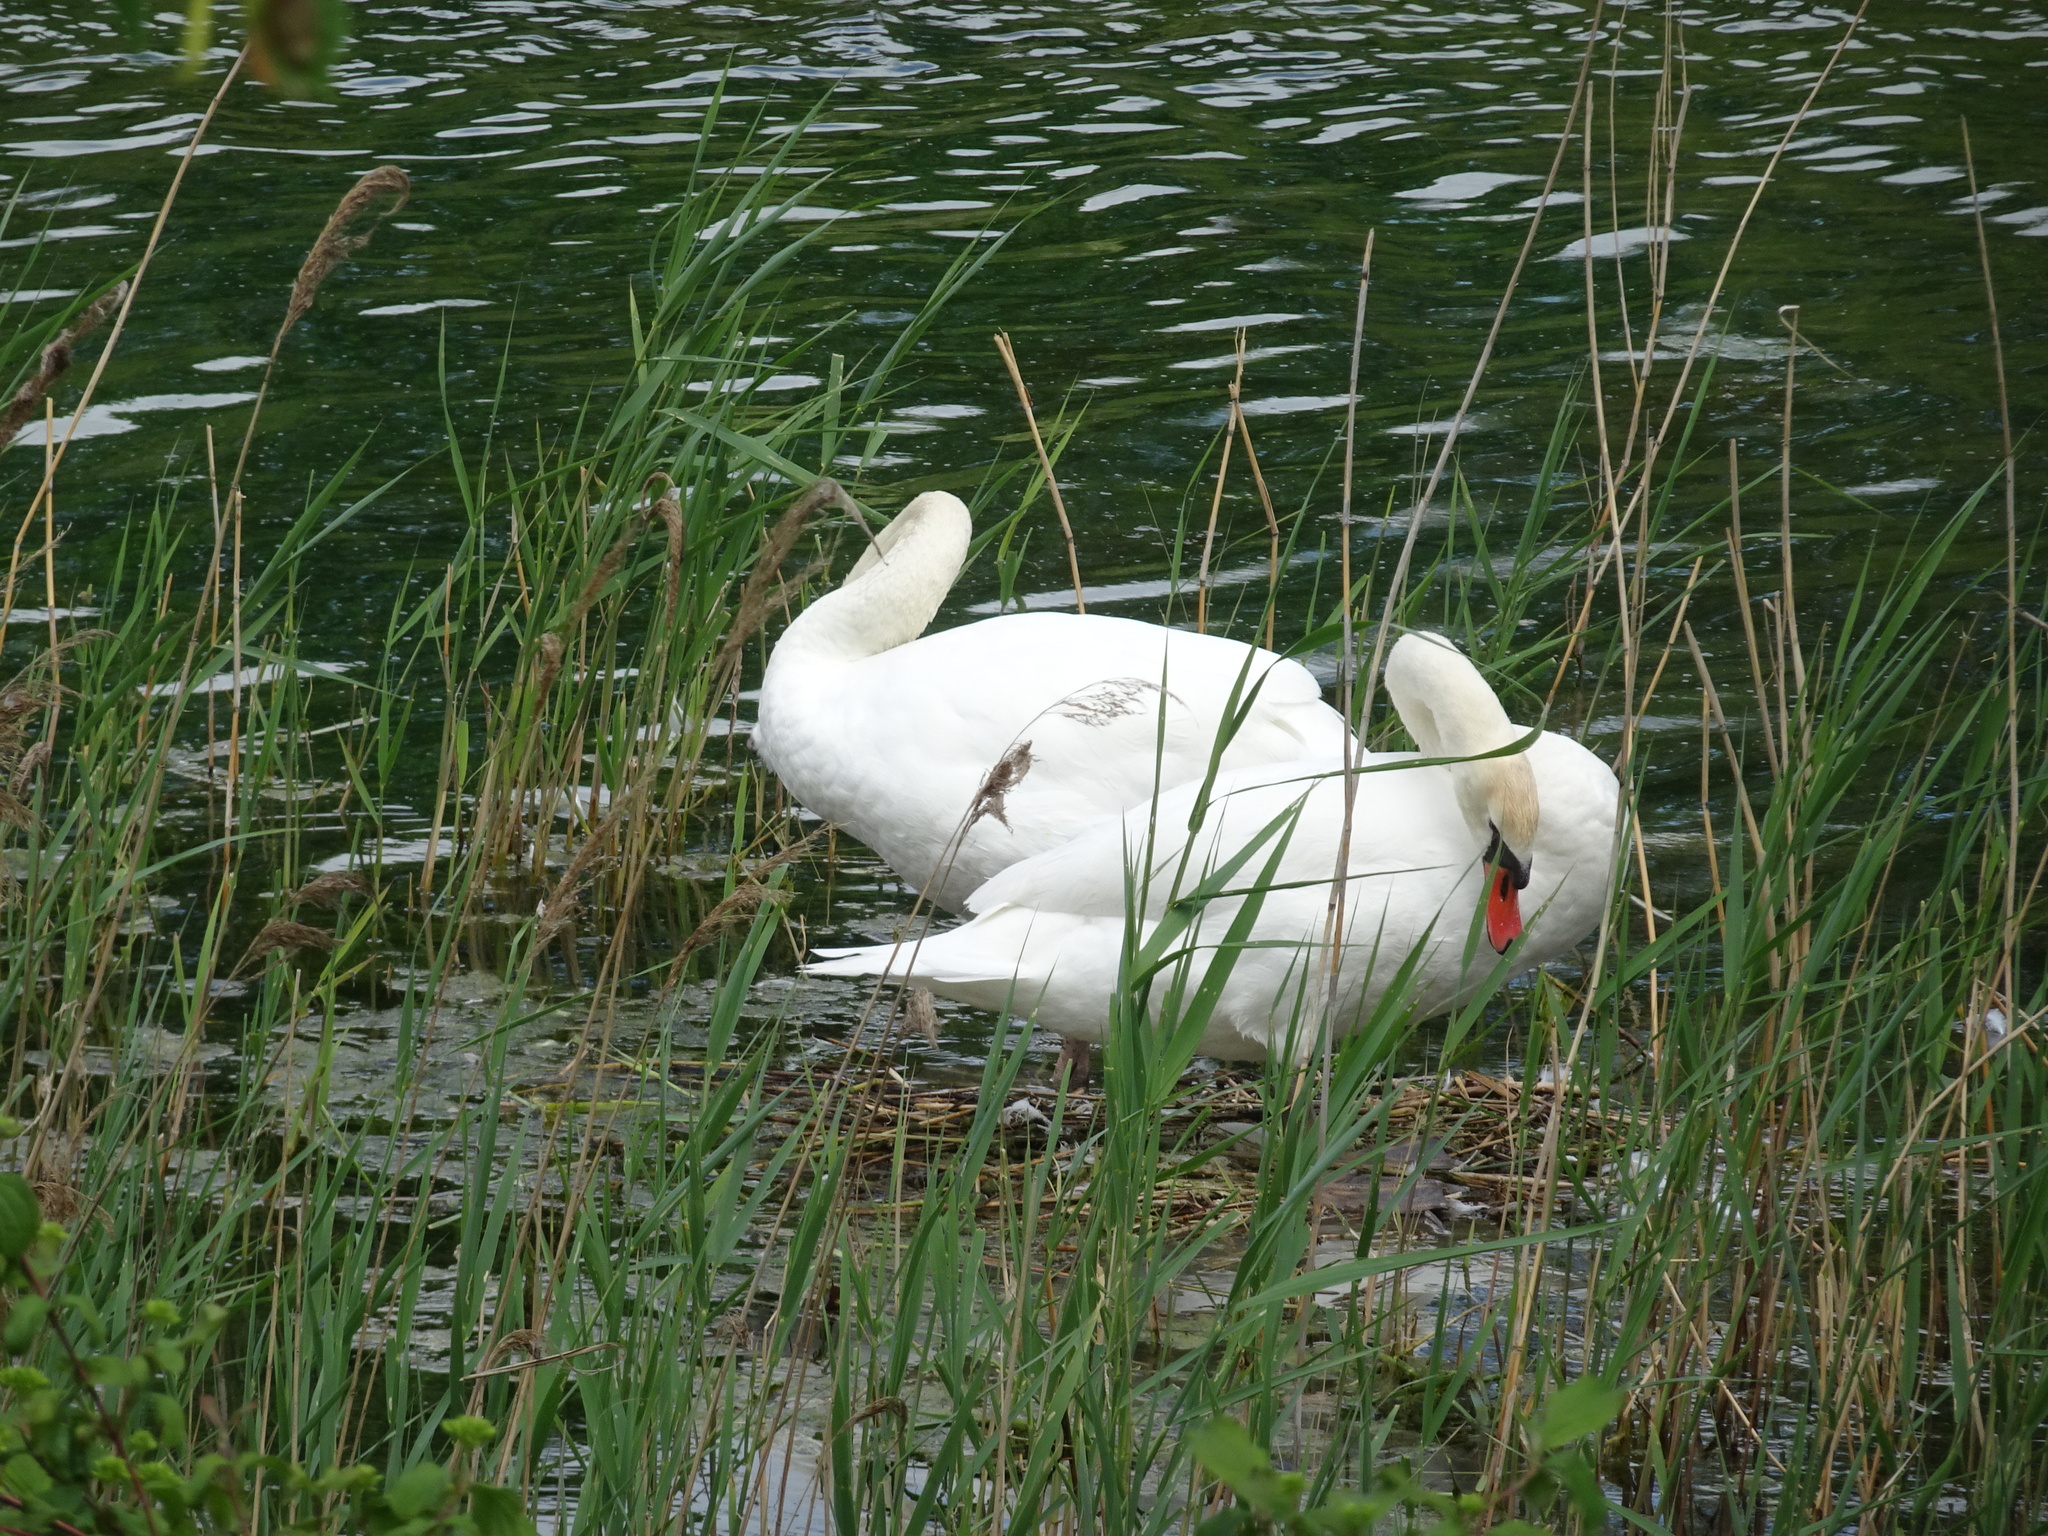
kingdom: Animalia
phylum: Chordata
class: Aves
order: Anseriformes
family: Anatidae
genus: Cygnus
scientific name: Cygnus olor
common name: Mute swan
